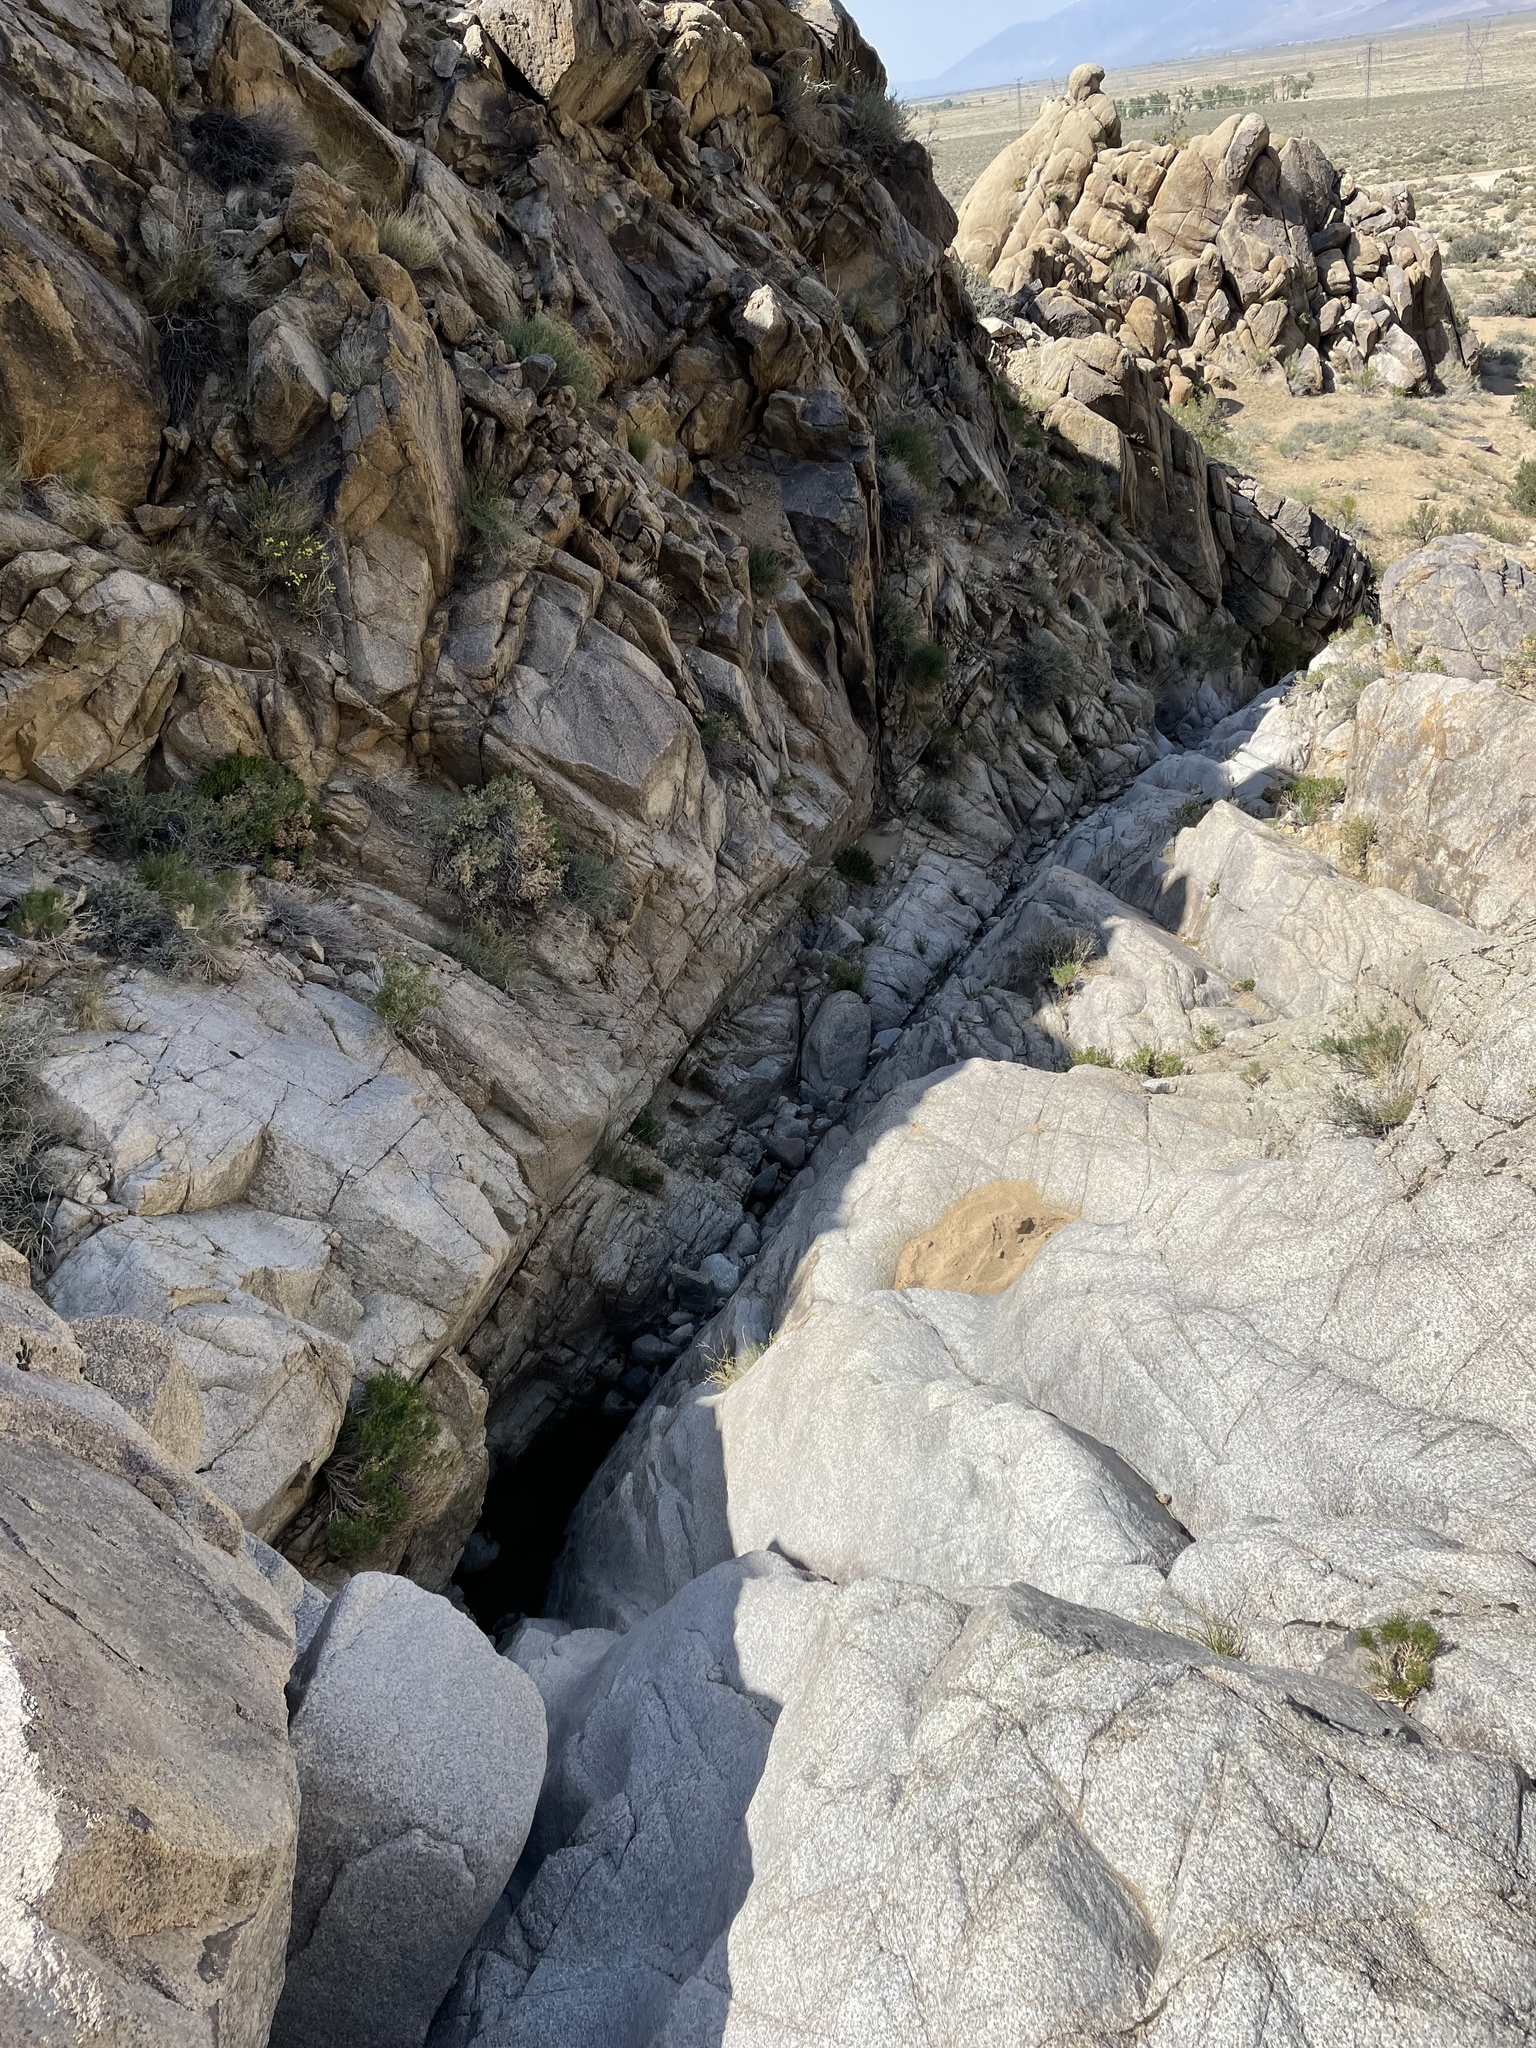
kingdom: Plantae
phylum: Tracheophyta
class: Magnoliopsida
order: Lamiales
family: Phrymaceae
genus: Erythranthe
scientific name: Erythranthe bergeri
